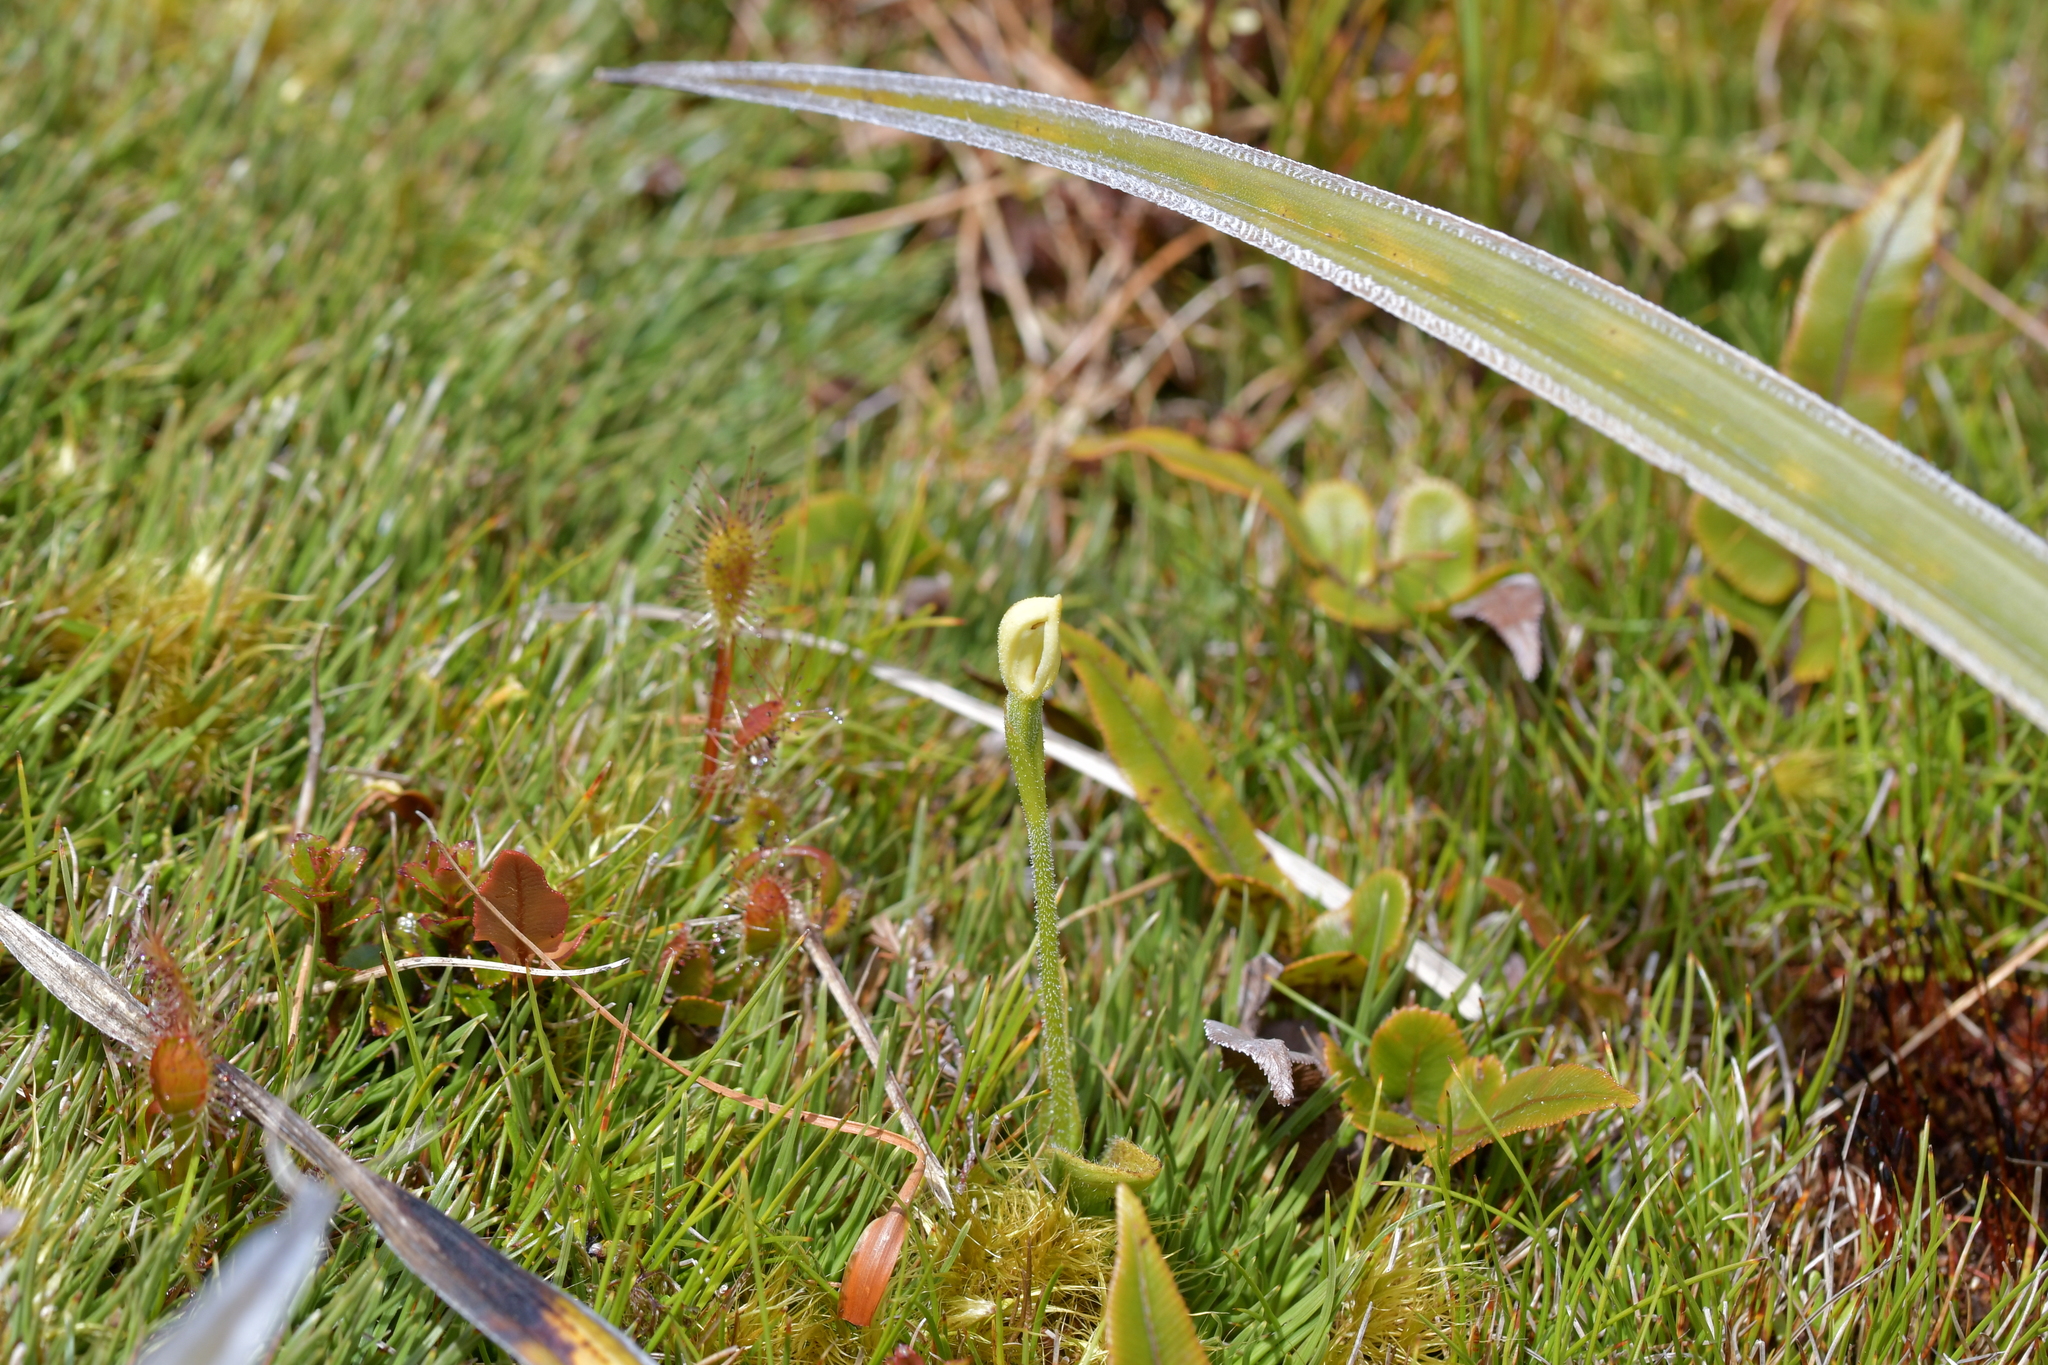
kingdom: Plantae
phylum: Tracheophyta
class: Liliopsida
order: Asparagales
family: Orchidaceae
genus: Aporostylis
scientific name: Aporostylis bifolia
